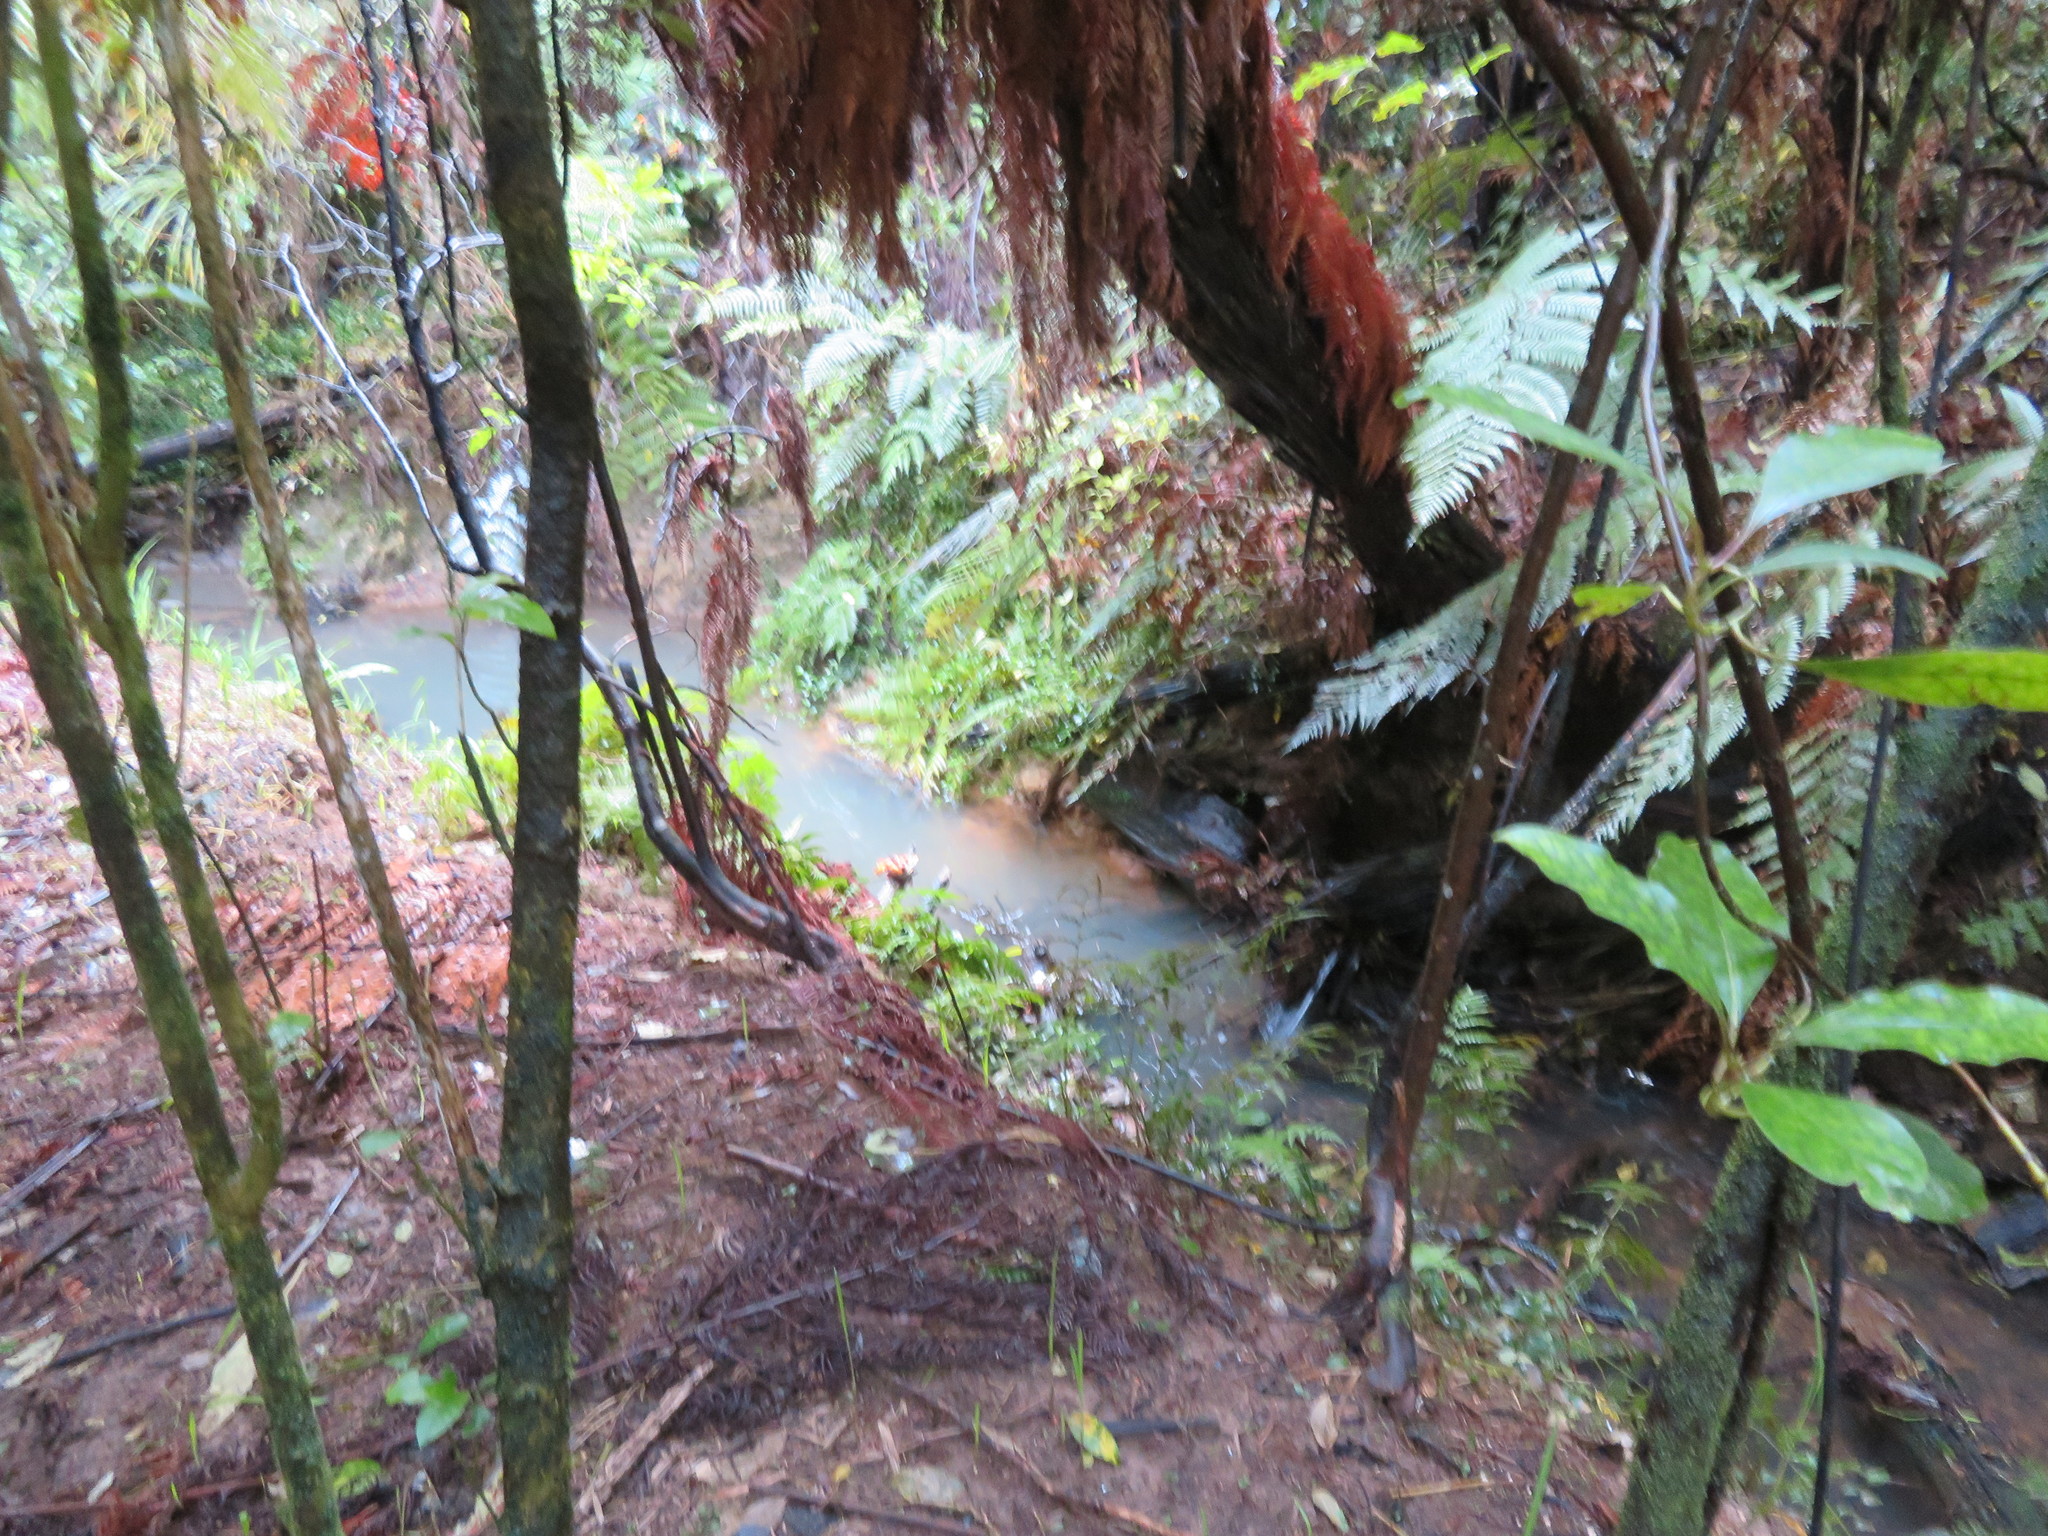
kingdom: Plantae
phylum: Tracheophyta
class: Magnoliopsida
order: Gentianales
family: Rubiaceae
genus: Coprosma
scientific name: Coprosma autumnalis
